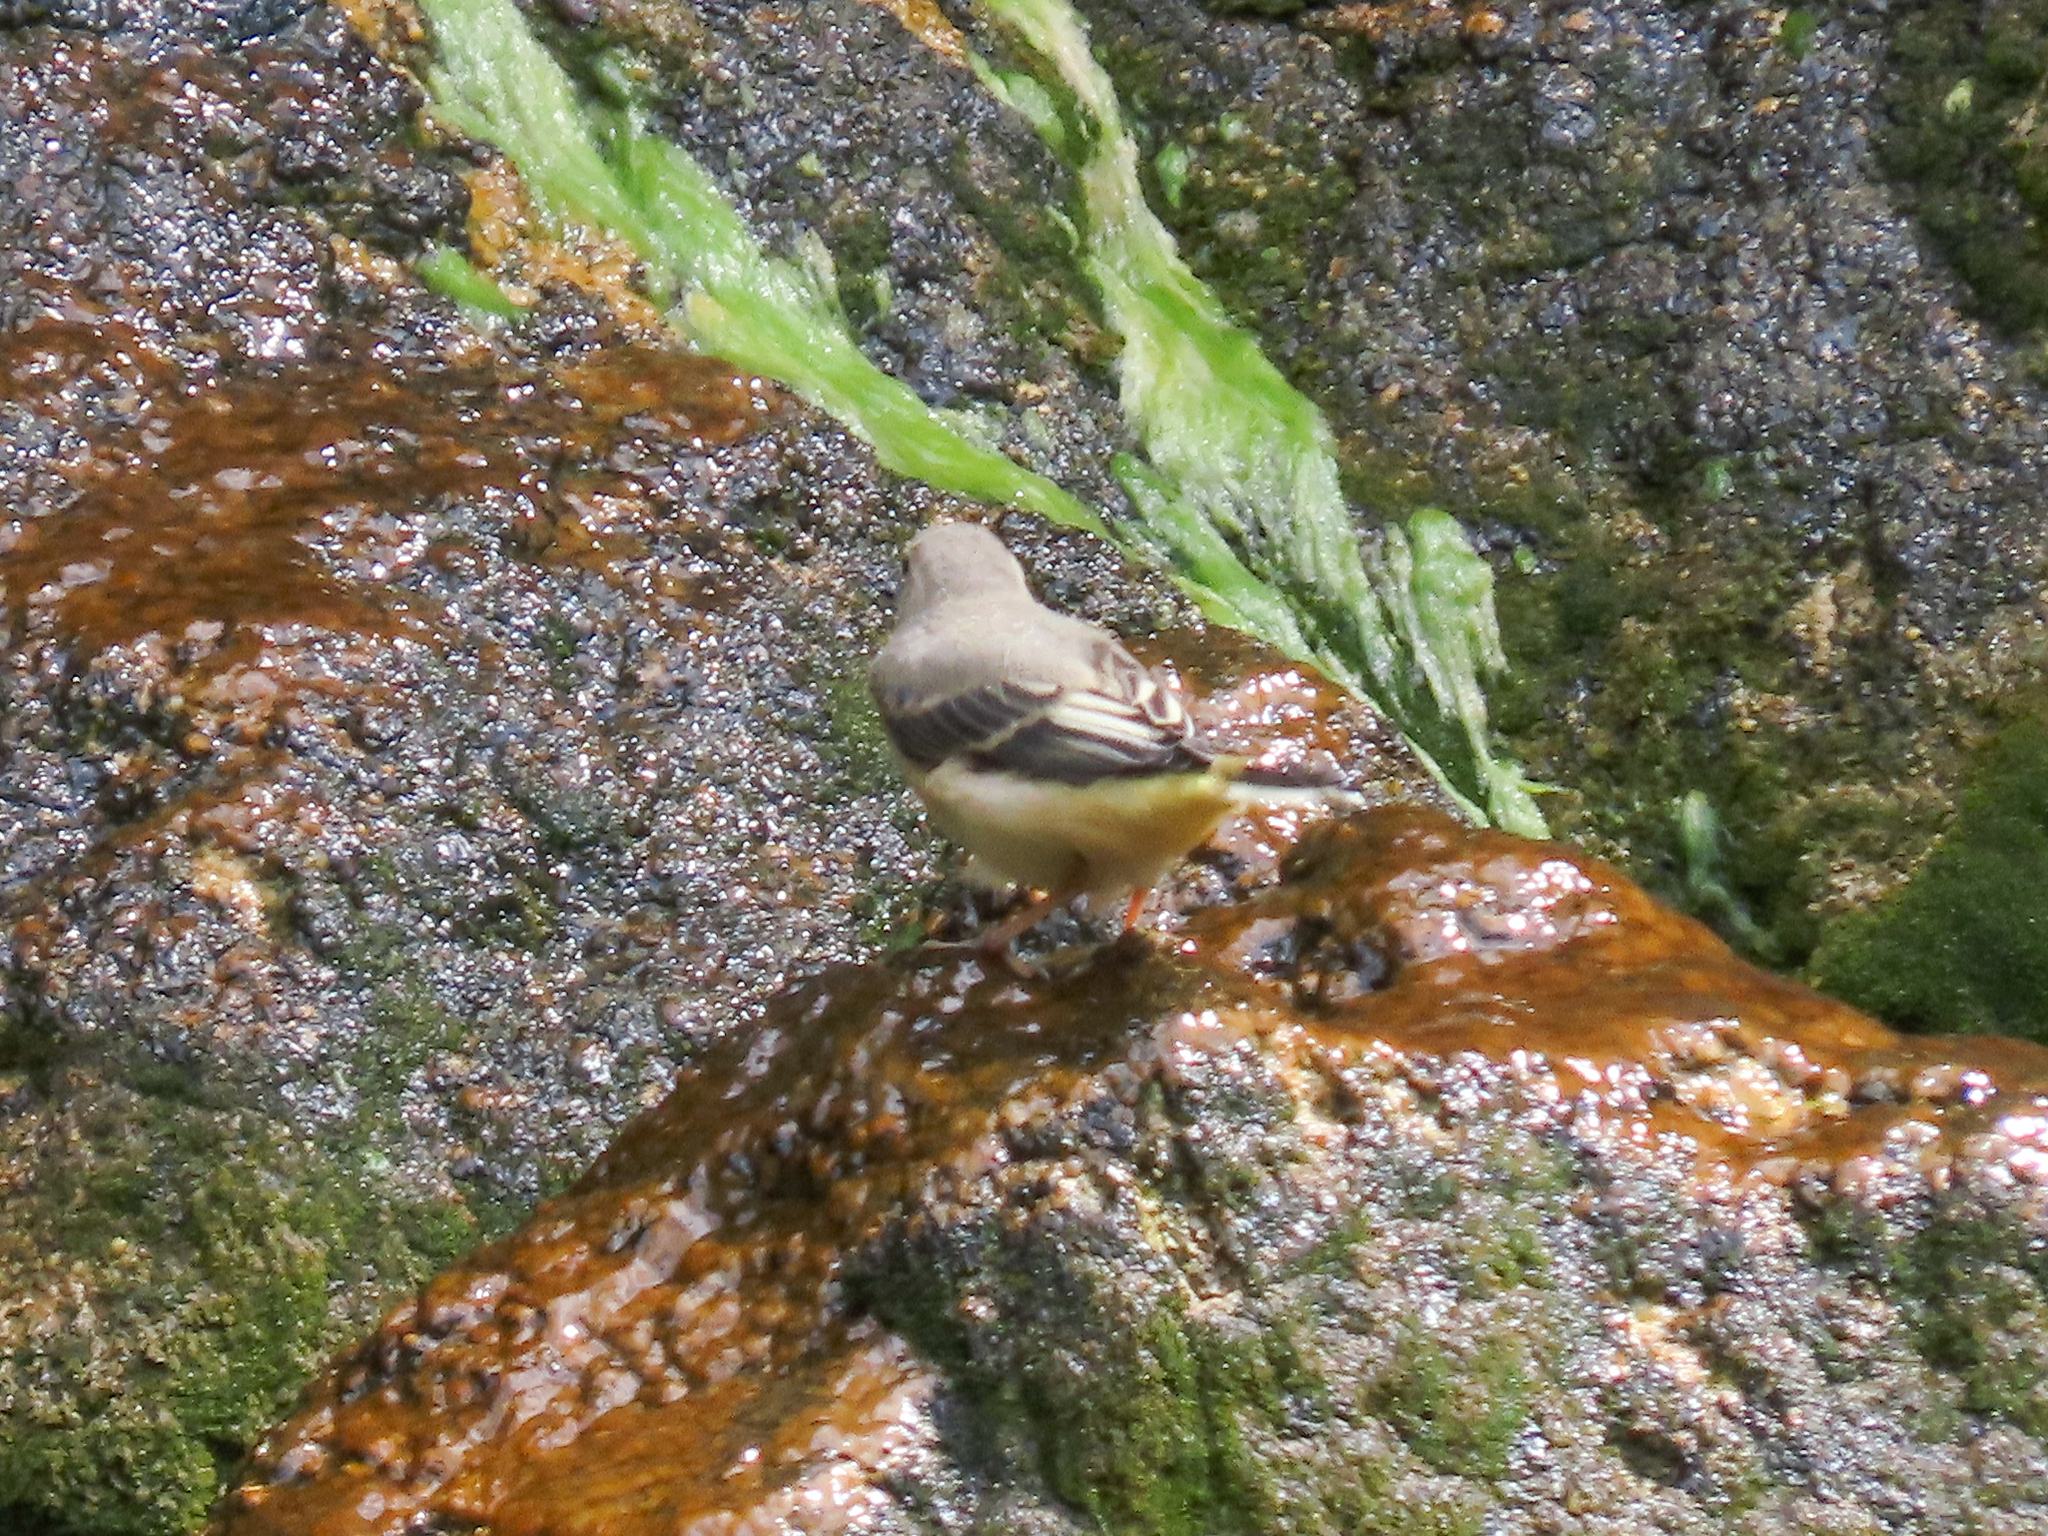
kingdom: Animalia
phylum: Chordata
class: Aves
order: Passeriformes
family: Motacillidae
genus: Motacilla
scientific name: Motacilla cinerea
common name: Grey wagtail
